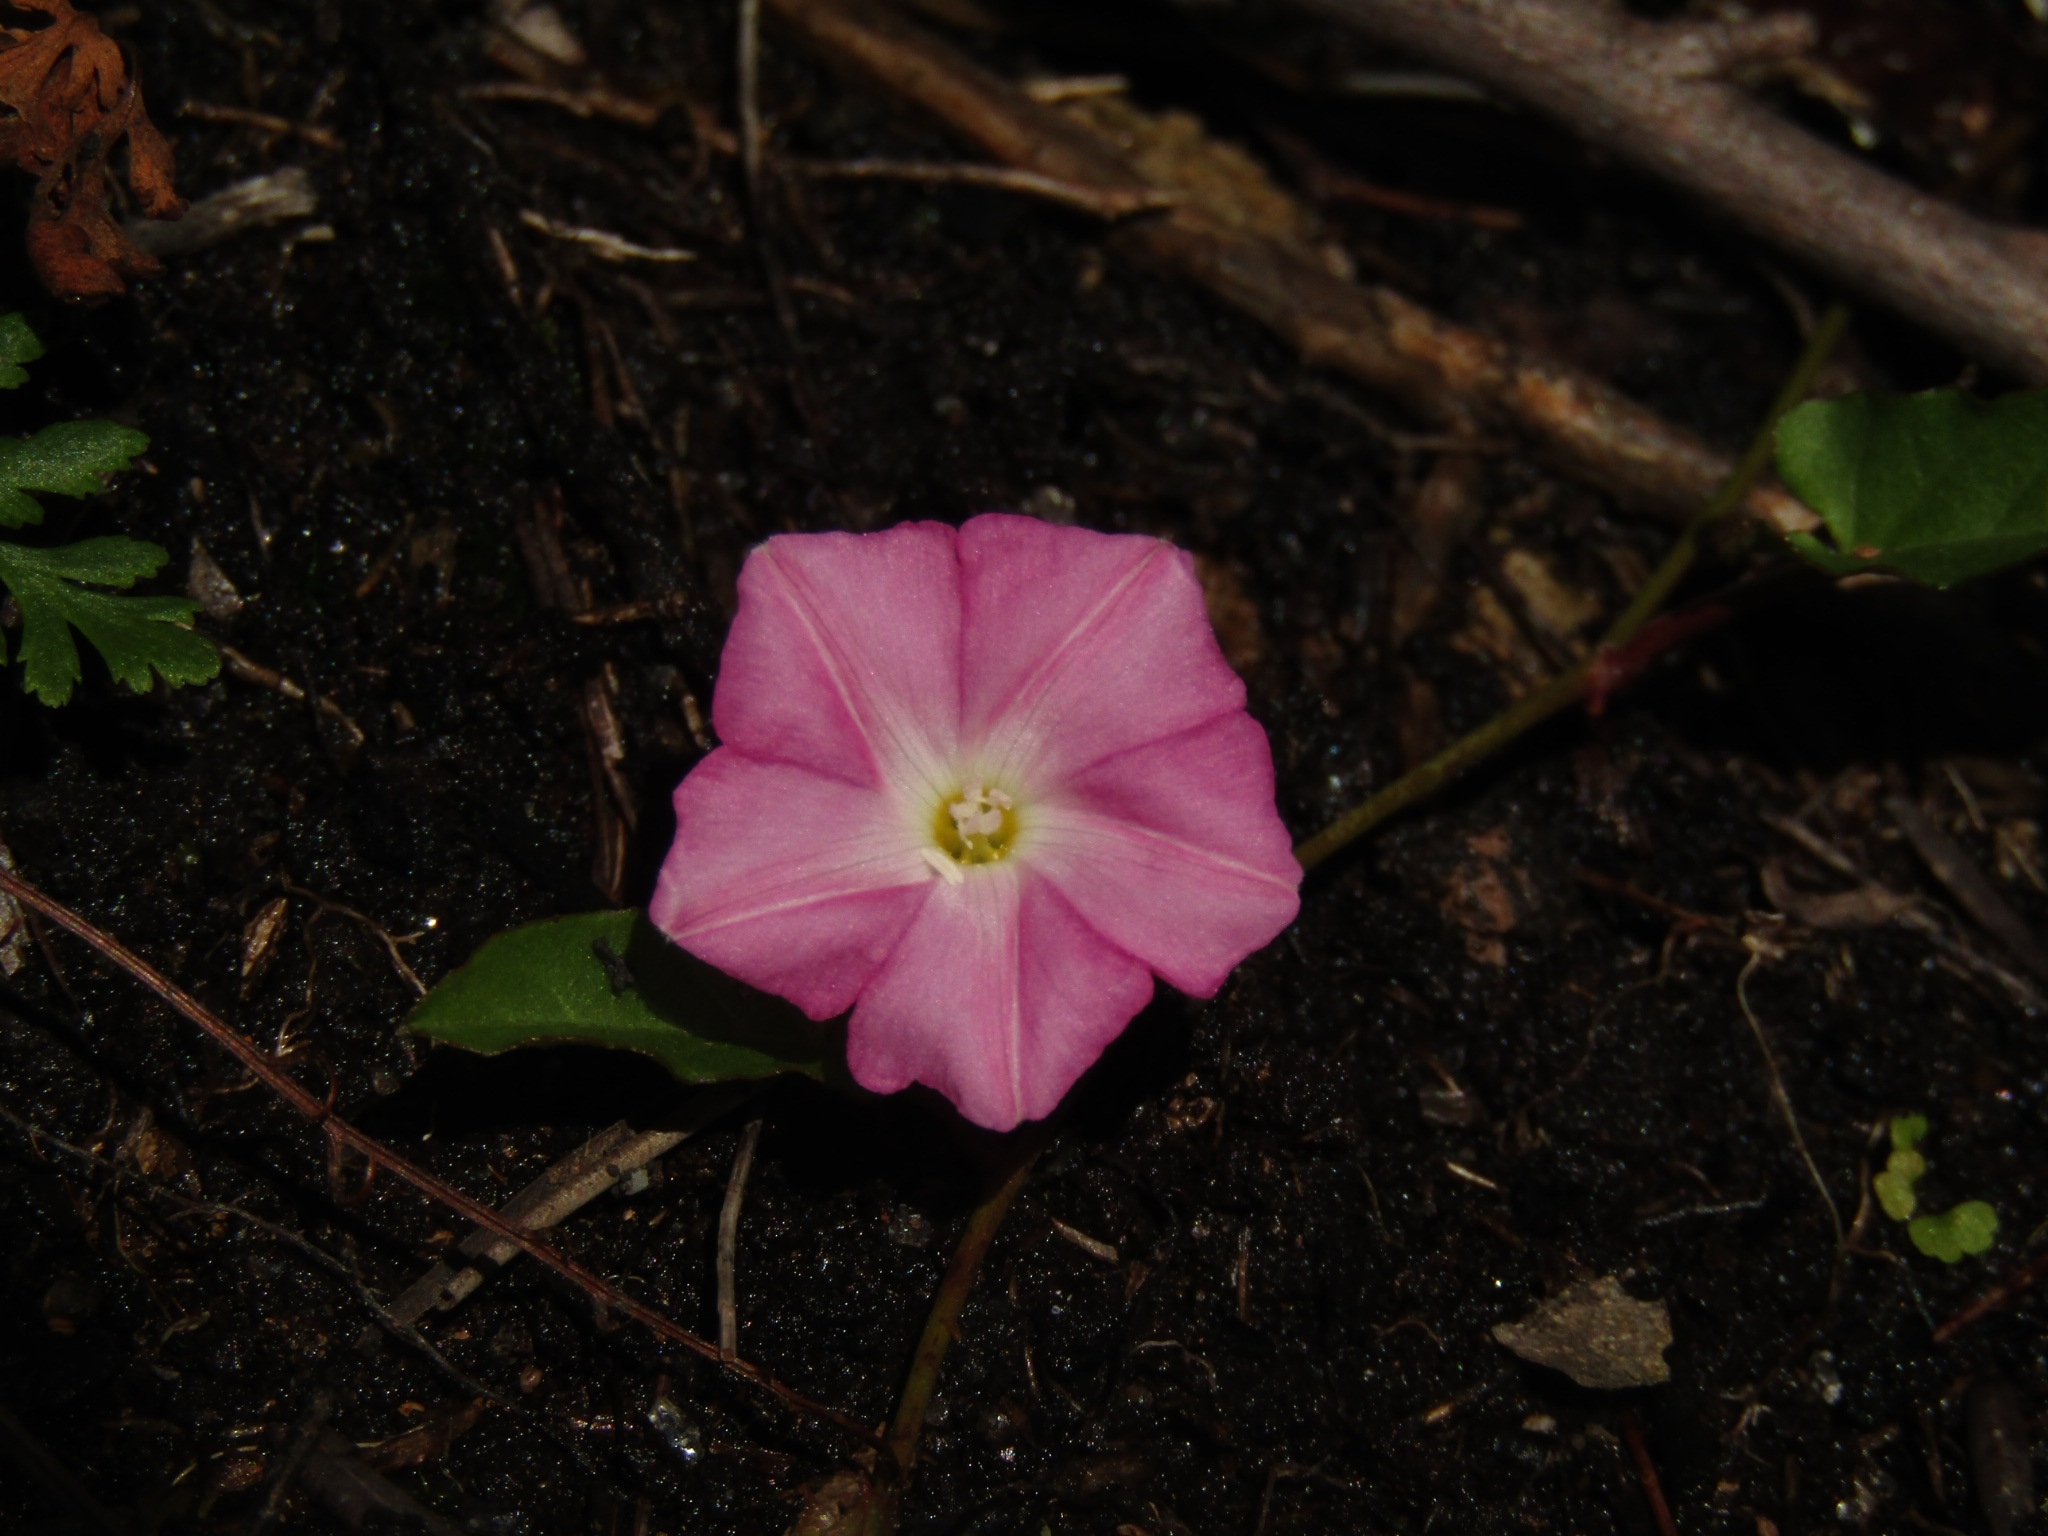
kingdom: Plantae
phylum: Tracheophyta
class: Magnoliopsida
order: Solanales
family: Convolvulaceae
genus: Polymeria
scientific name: Polymeria calycina
